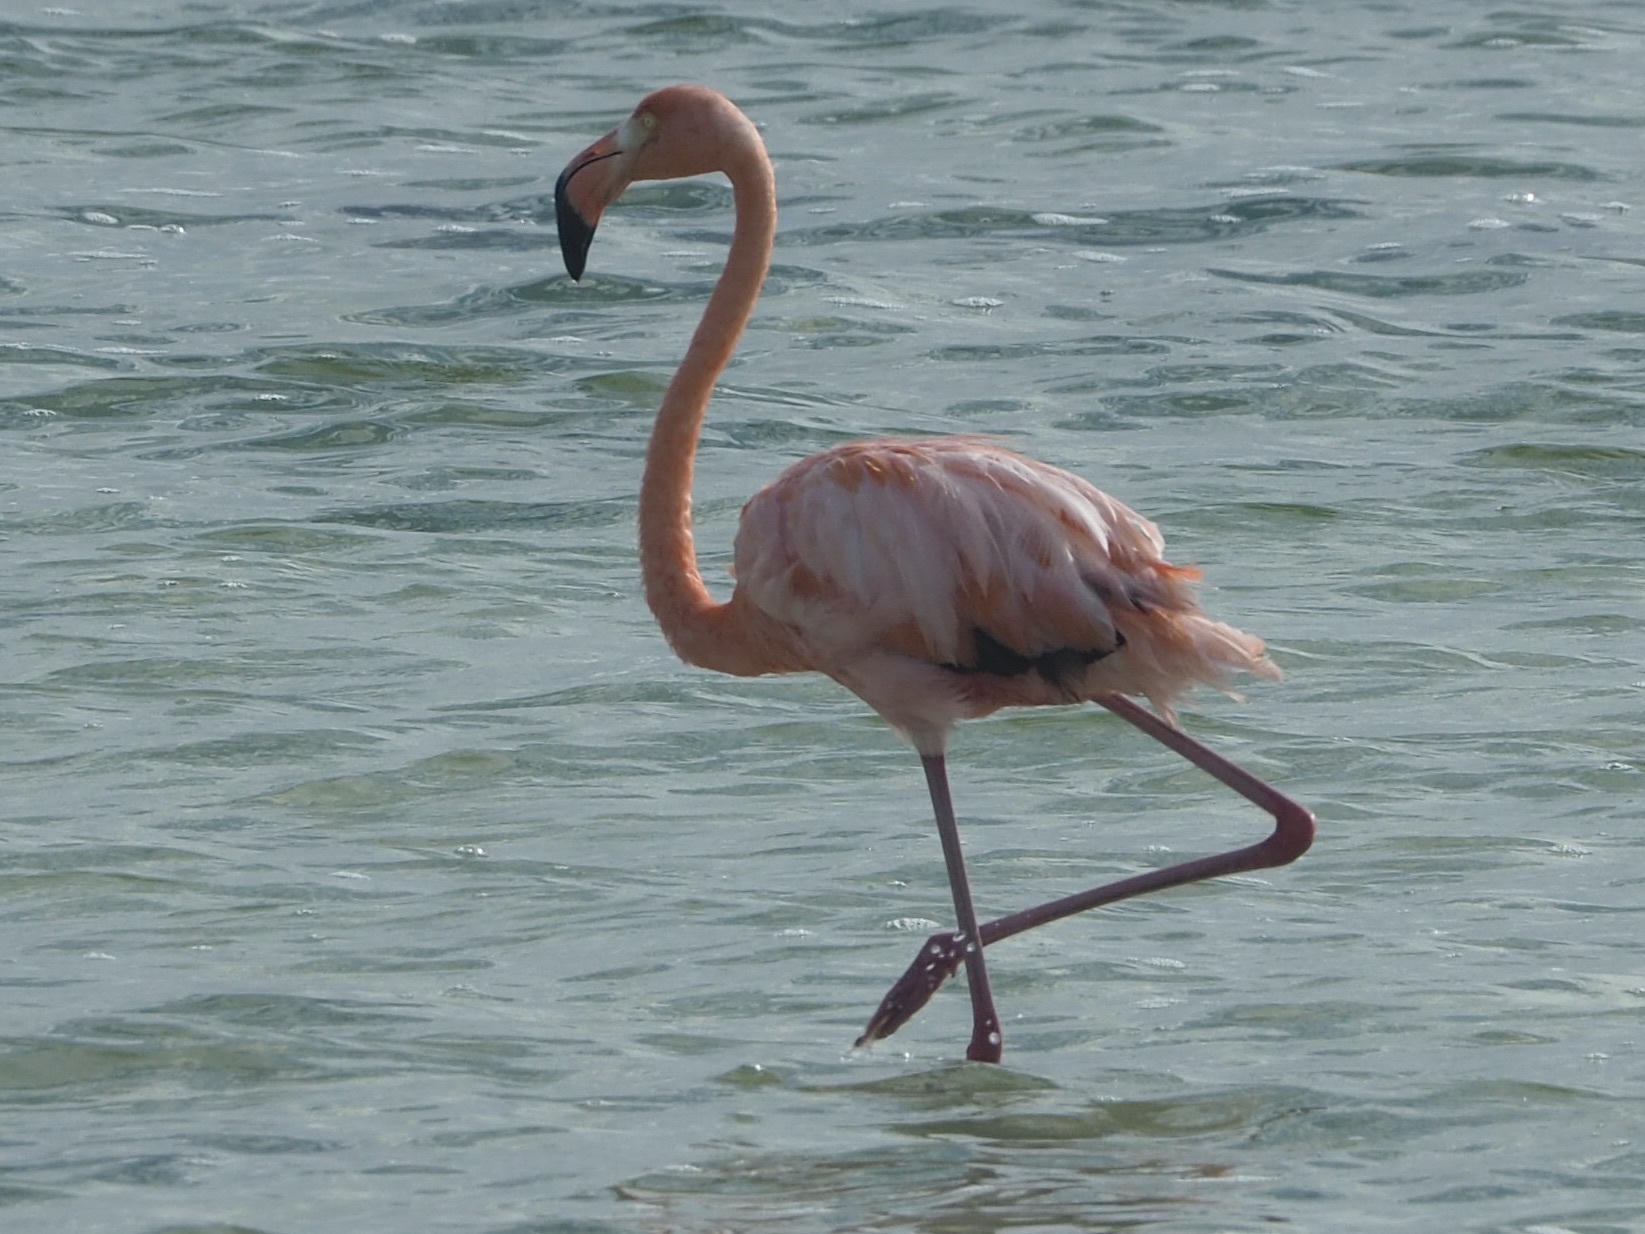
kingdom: Animalia
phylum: Chordata
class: Aves
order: Phoenicopteriformes
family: Phoenicopteridae
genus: Phoenicopterus
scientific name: Phoenicopterus ruber
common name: American flamingo
